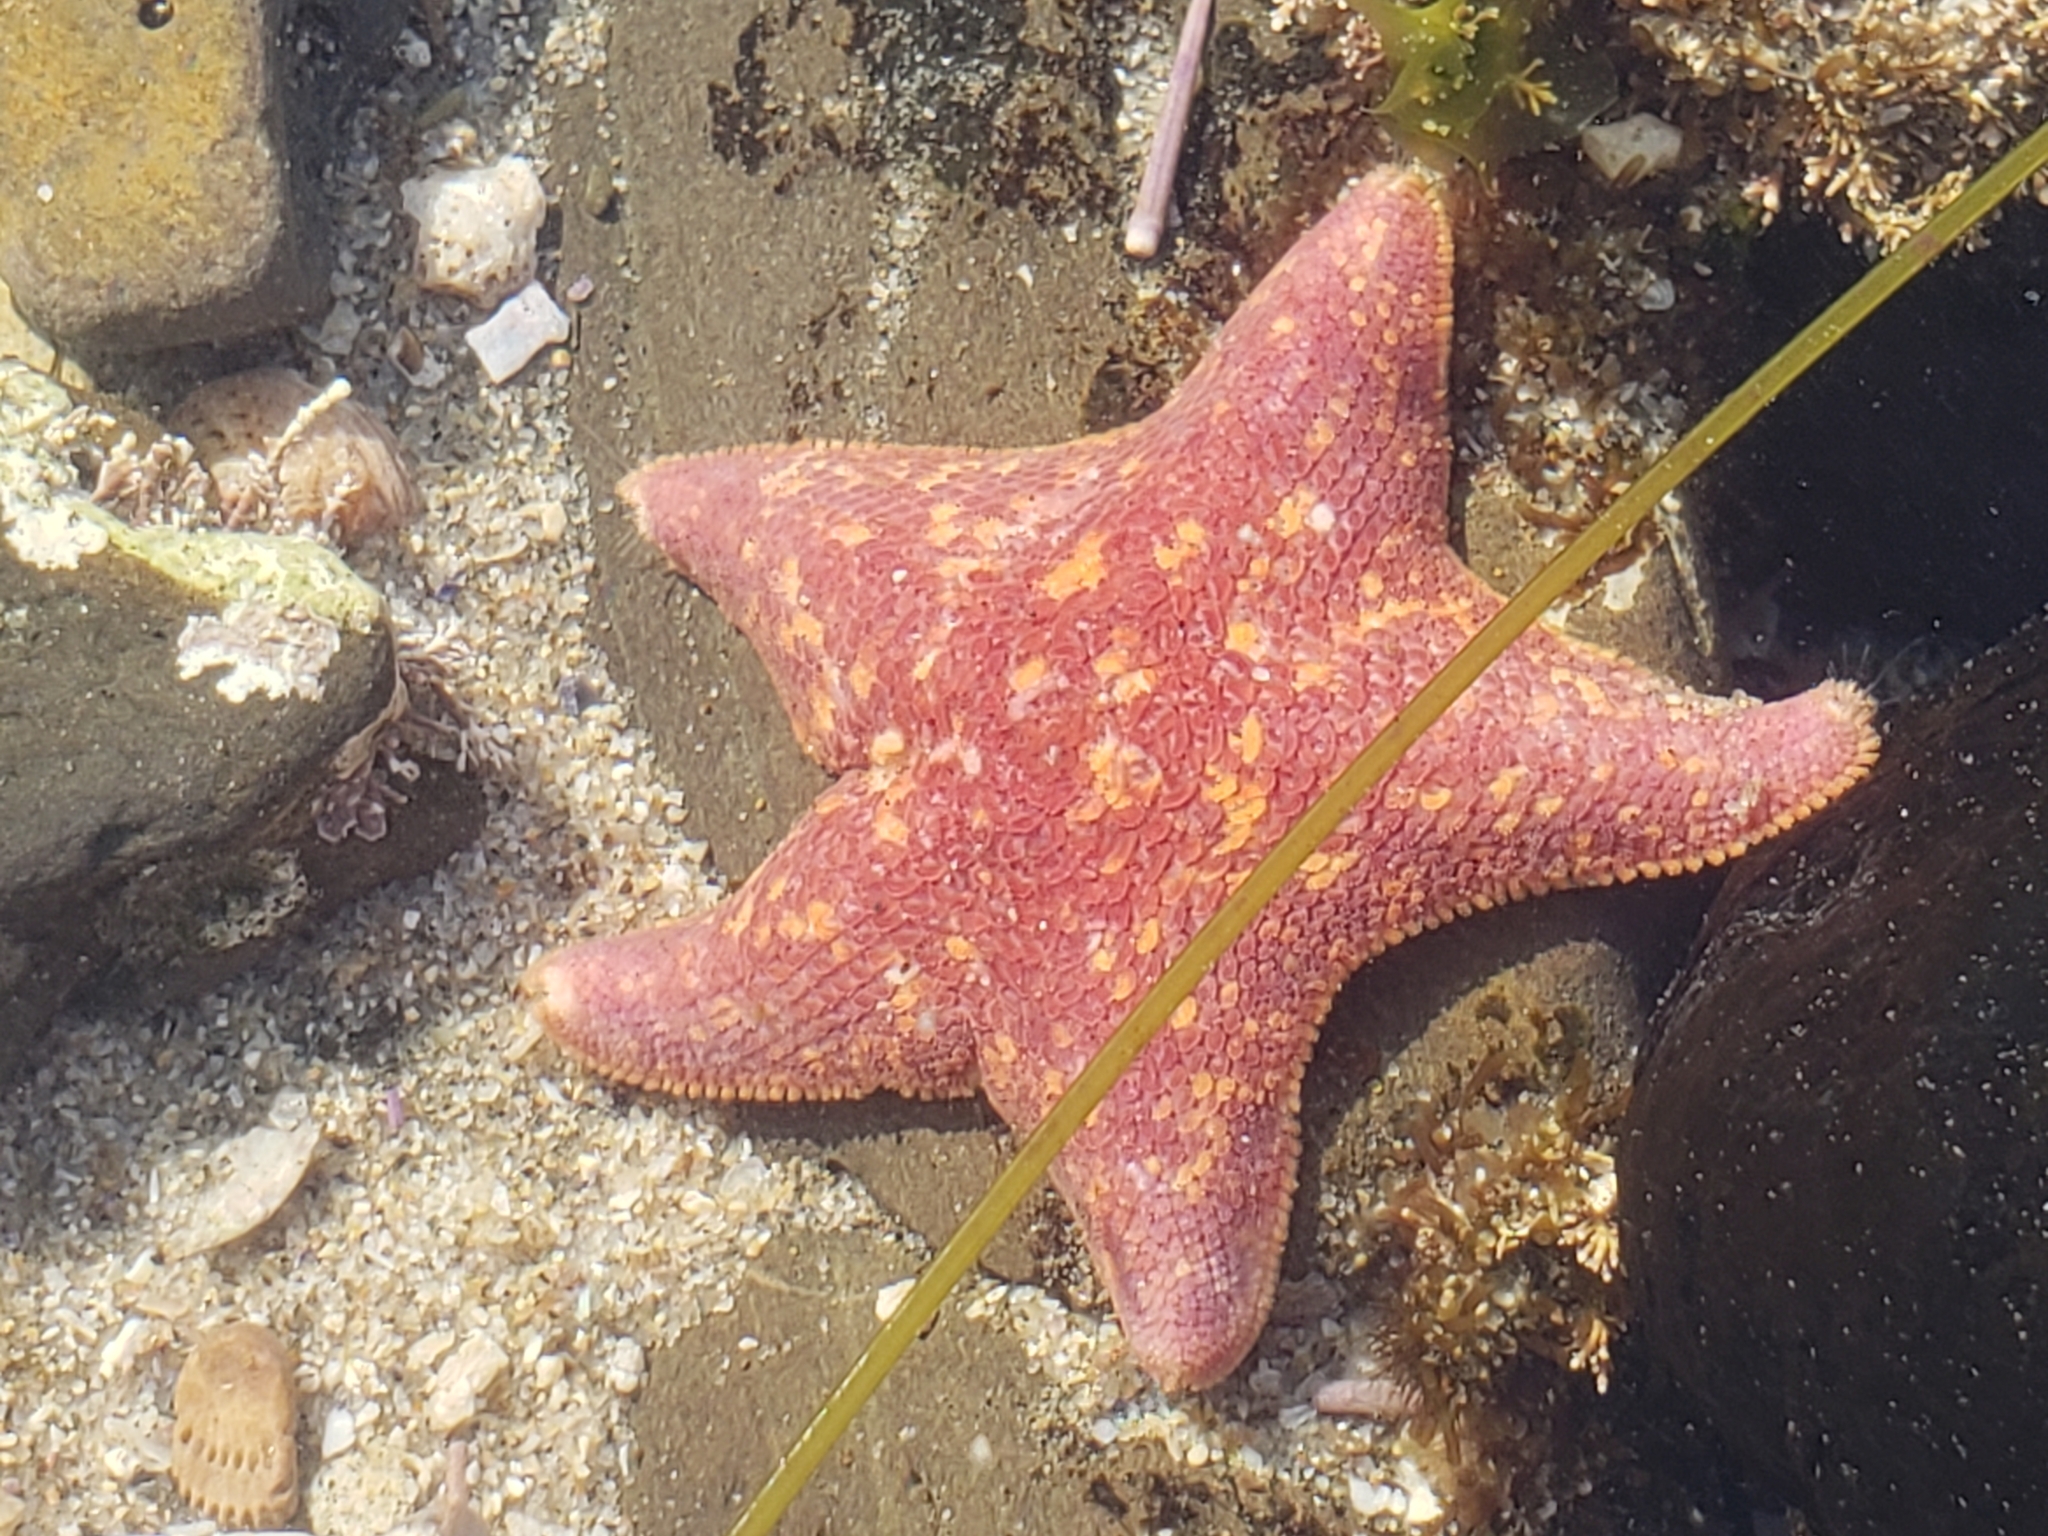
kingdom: Animalia
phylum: Echinodermata
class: Asteroidea
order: Valvatida
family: Asterinidae
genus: Patiria
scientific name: Patiria miniata
